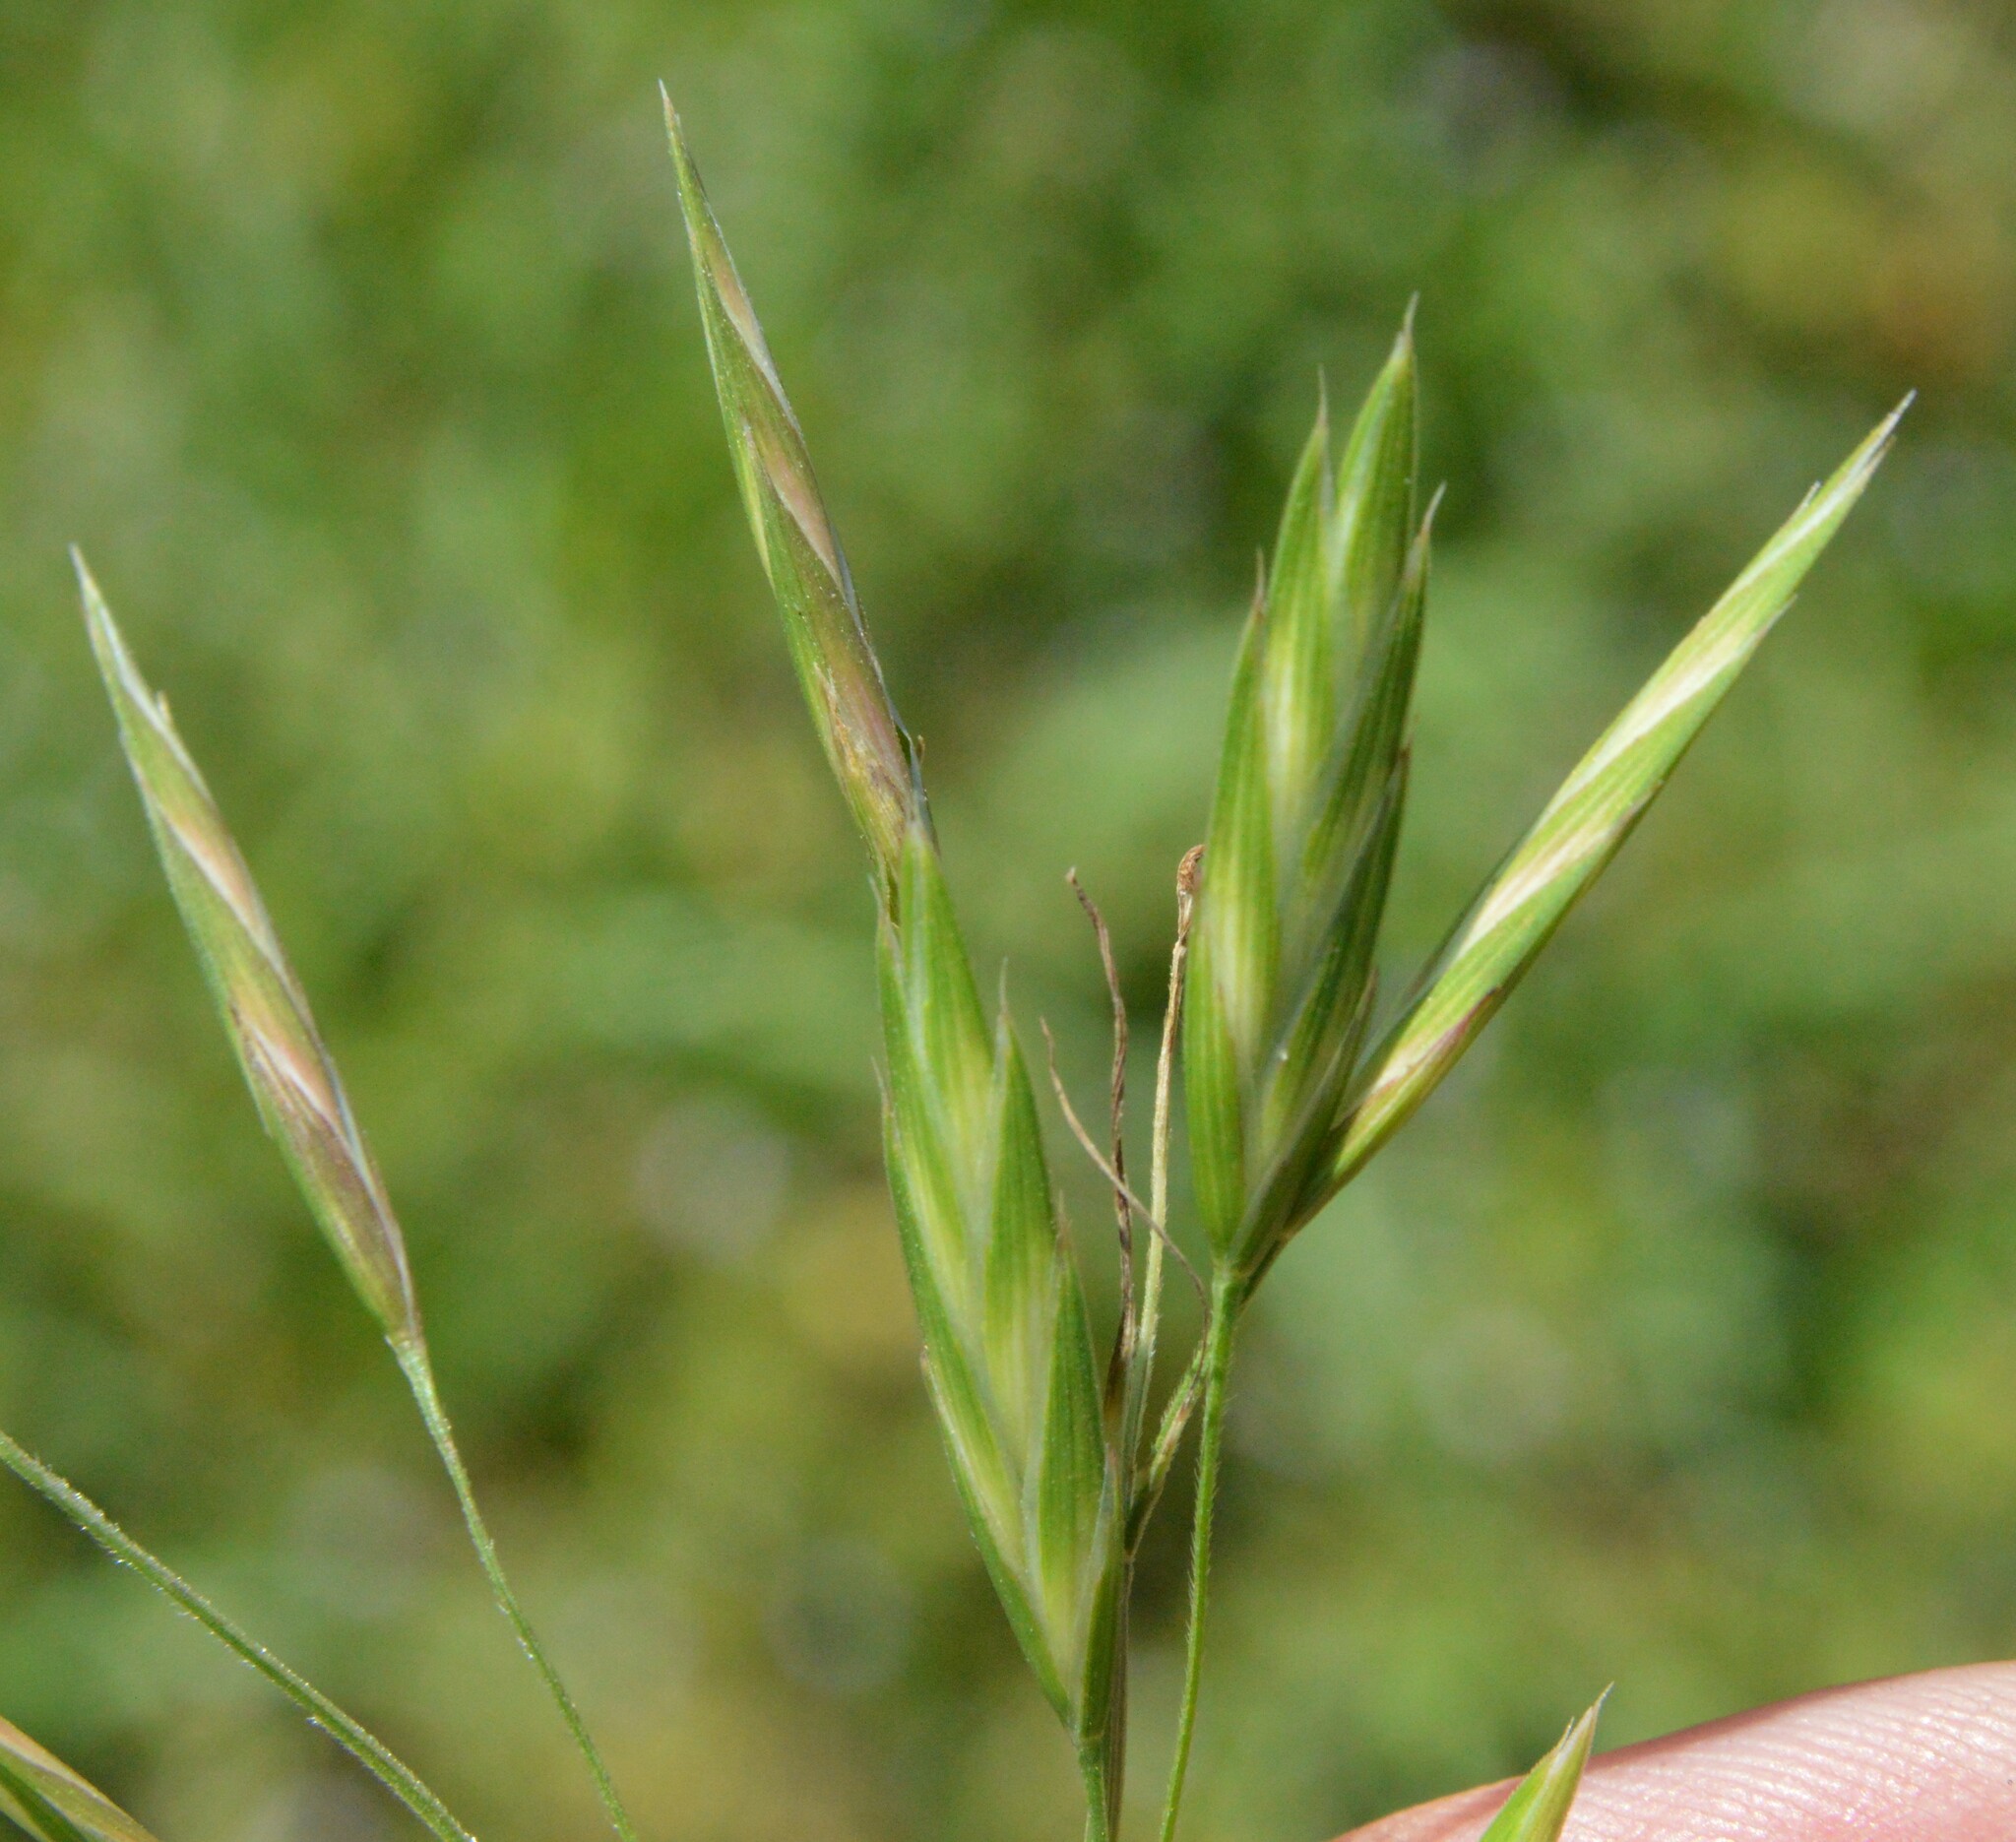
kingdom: Plantae
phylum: Tracheophyta
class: Liliopsida
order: Poales
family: Poaceae
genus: Bromus
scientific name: Bromus catharticus
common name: Rescuegrass
